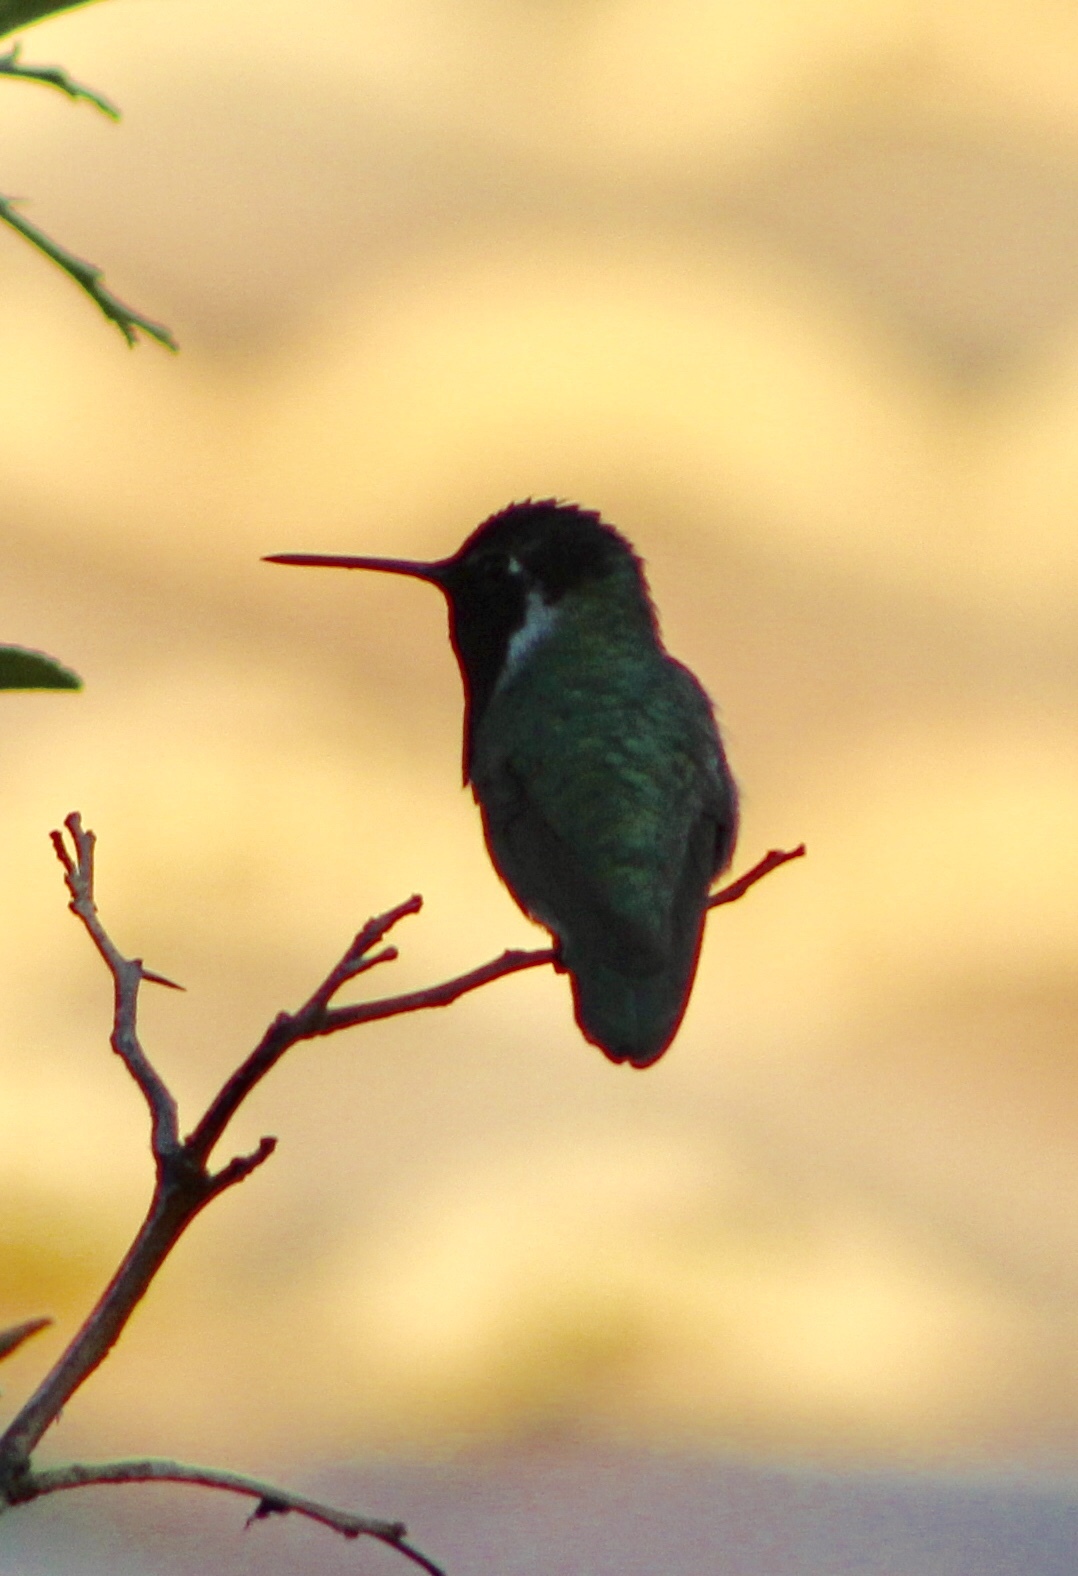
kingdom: Animalia
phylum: Chordata
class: Aves
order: Apodiformes
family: Trochilidae
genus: Calypte
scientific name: Calypte costae
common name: Costa's hummingbird
